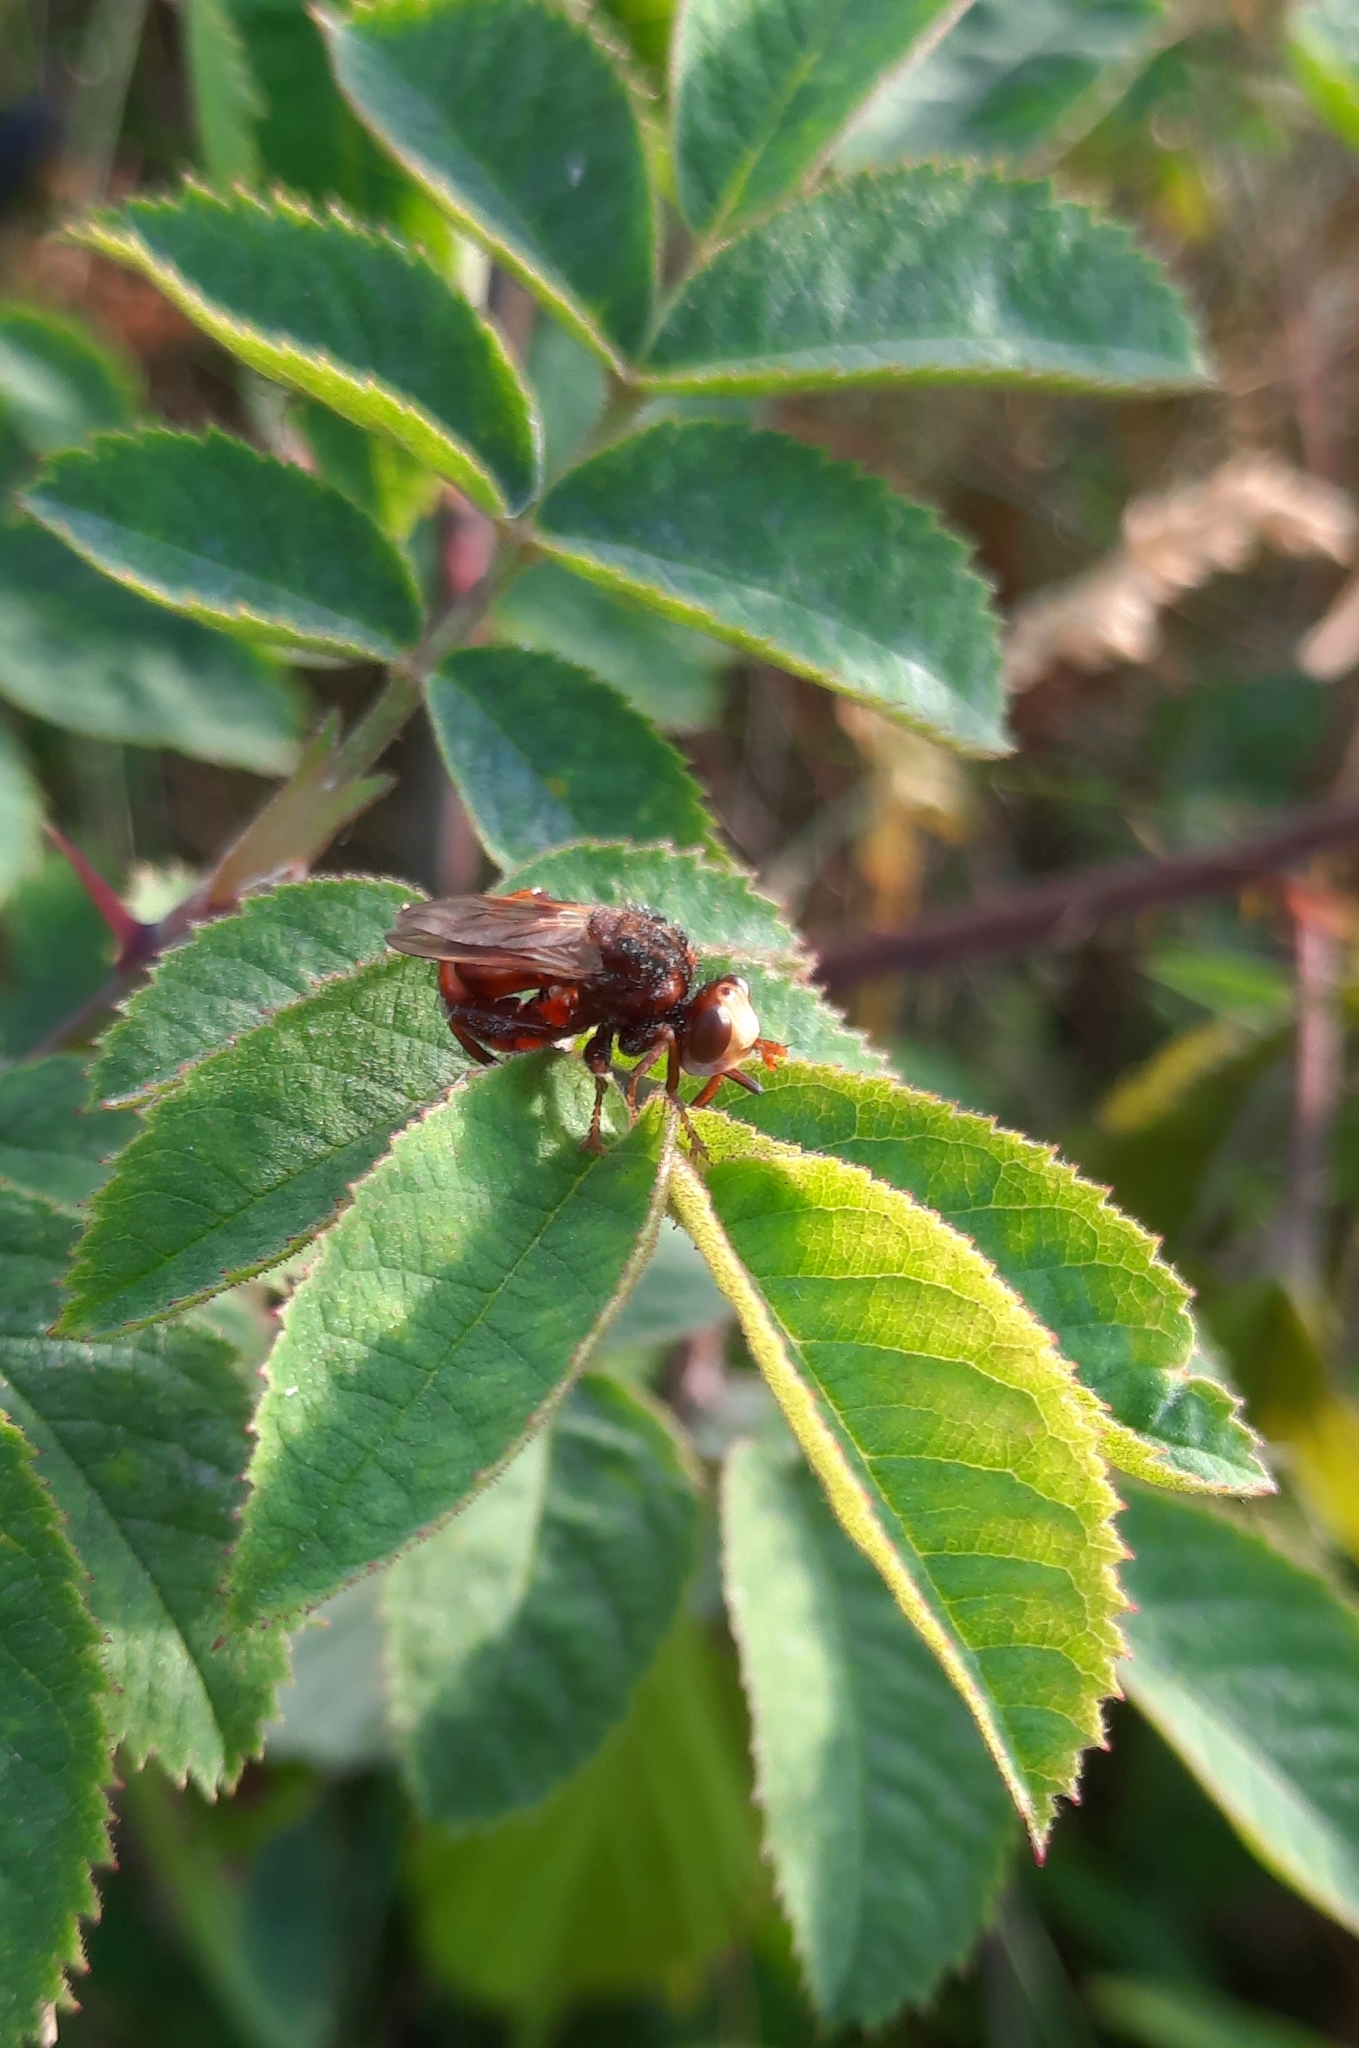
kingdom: Animalia
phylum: Arthropoda
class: Insecta
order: Diptera
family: Conopidae
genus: Sicus
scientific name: Sicus ferrugineus
